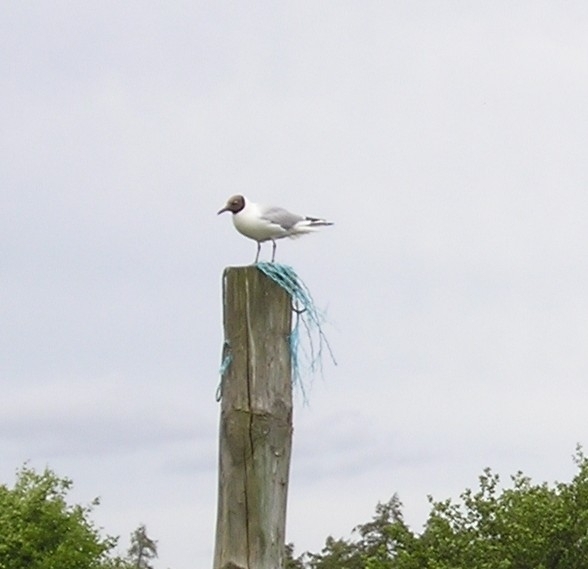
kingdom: Animalia
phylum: Chordata
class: Aves
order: Charadriiformes
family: Laridae
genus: Chroicocephalus
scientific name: Chroicocephalus ridibundus
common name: Black-headed gull
